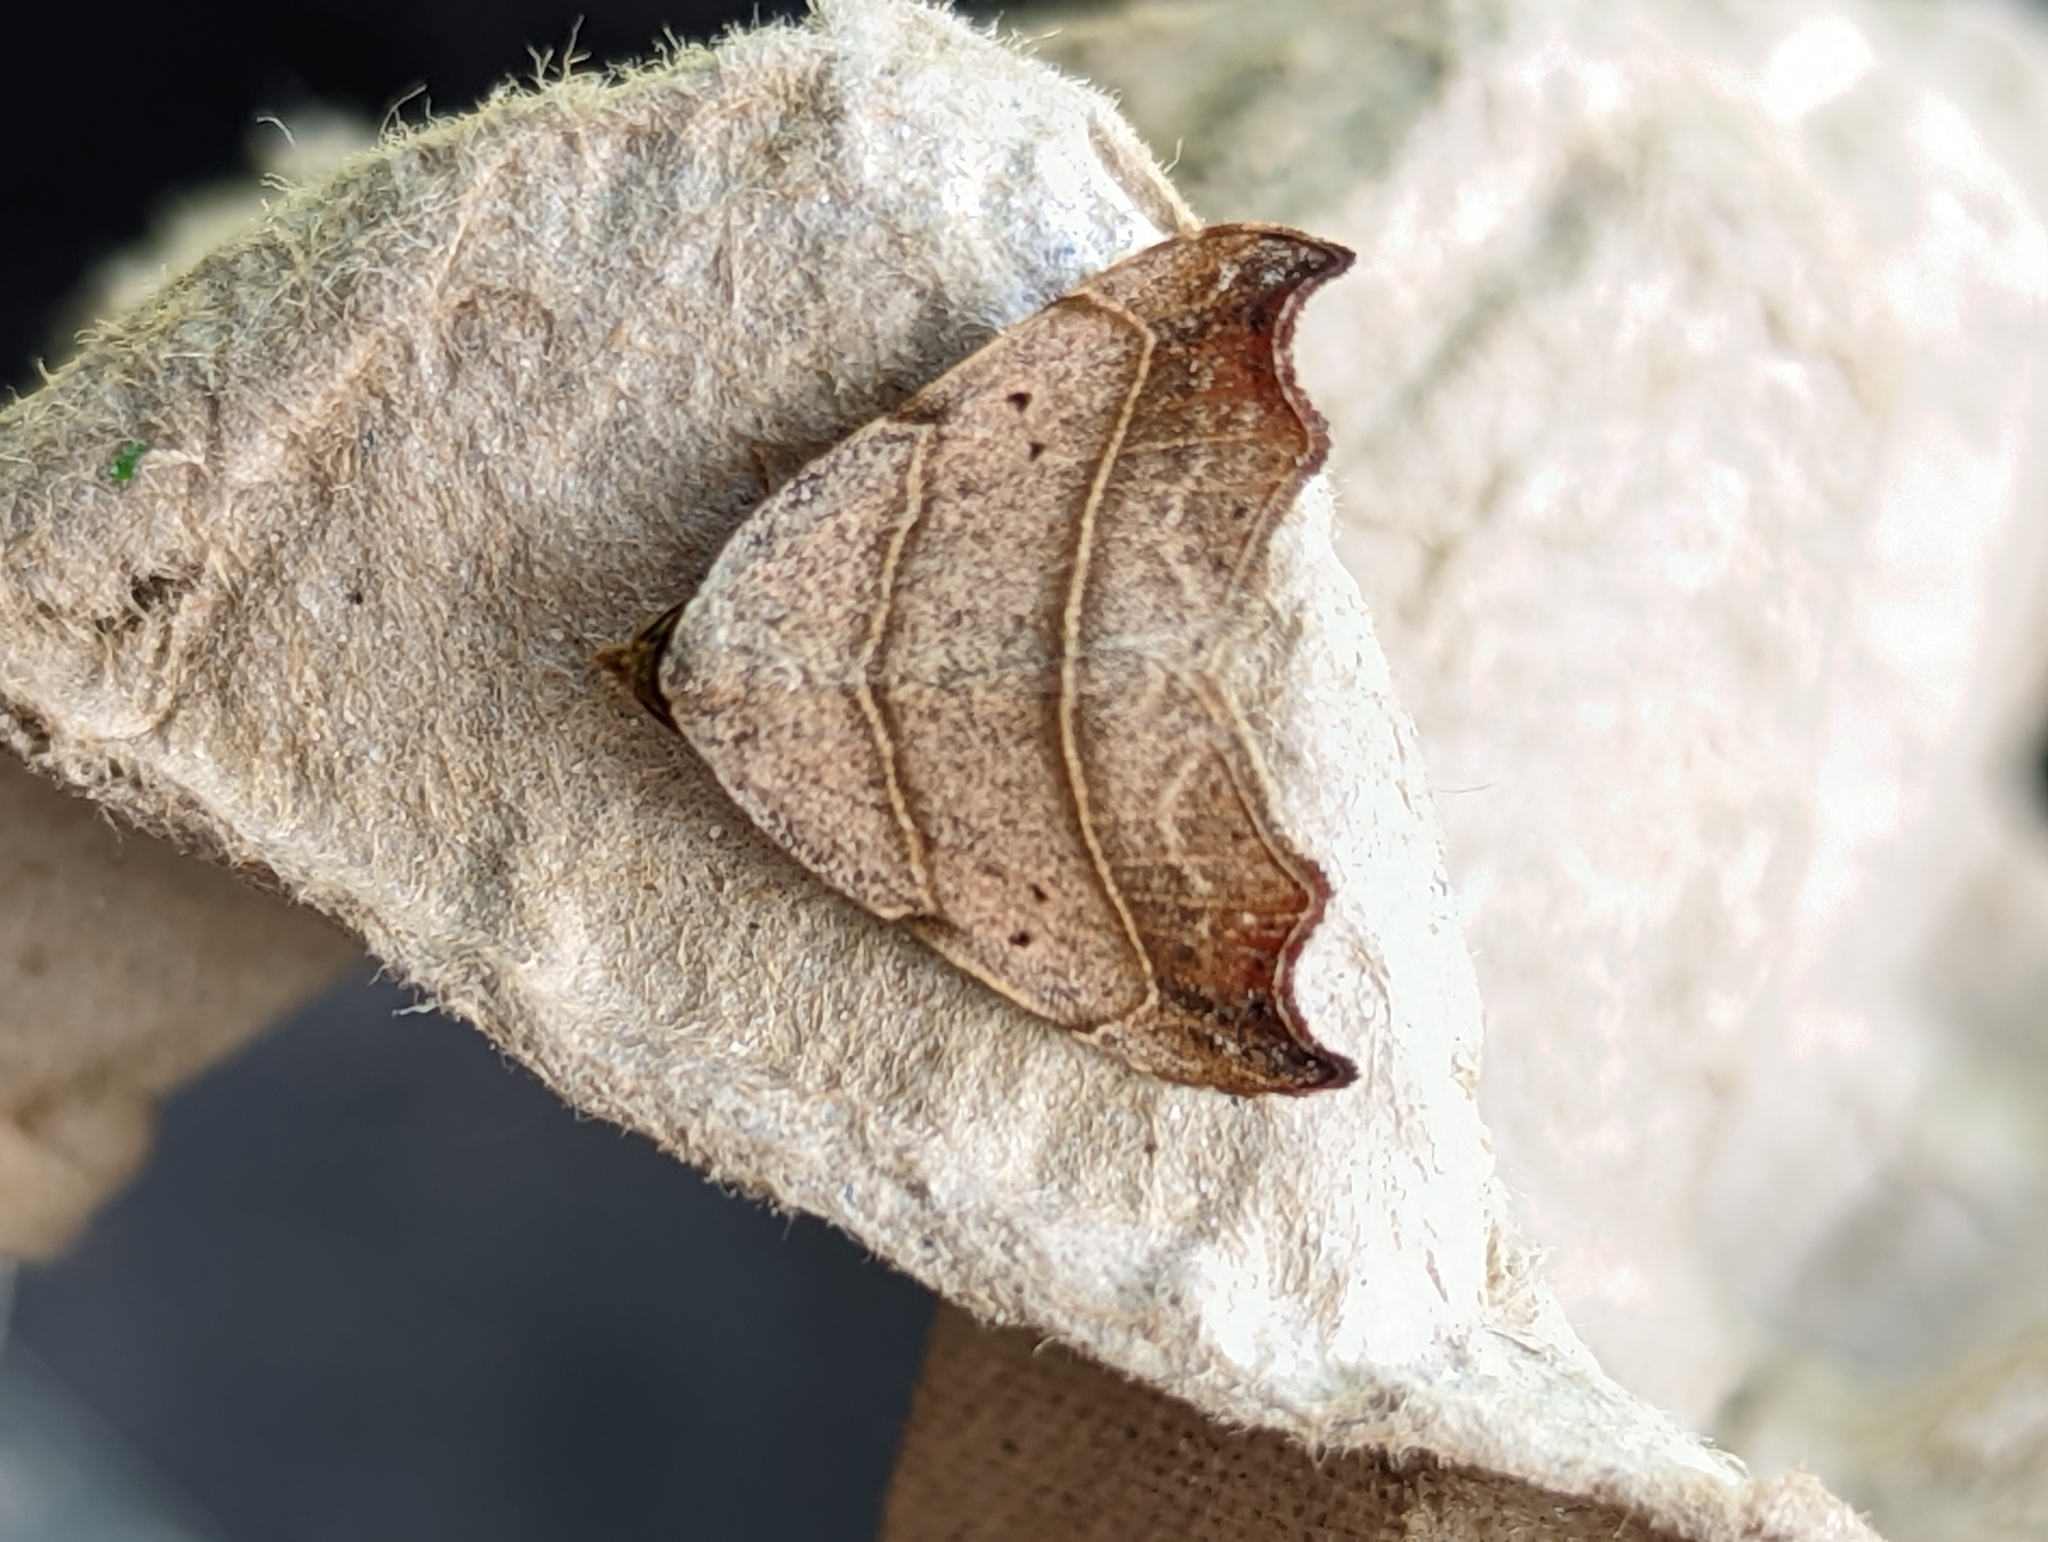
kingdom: Animalia
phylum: Arthropoda
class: Insecta
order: Lepidoptera
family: Erebidae
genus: Laspeyria
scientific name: Laspeyria flexula
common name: Beautiful hook-tip
